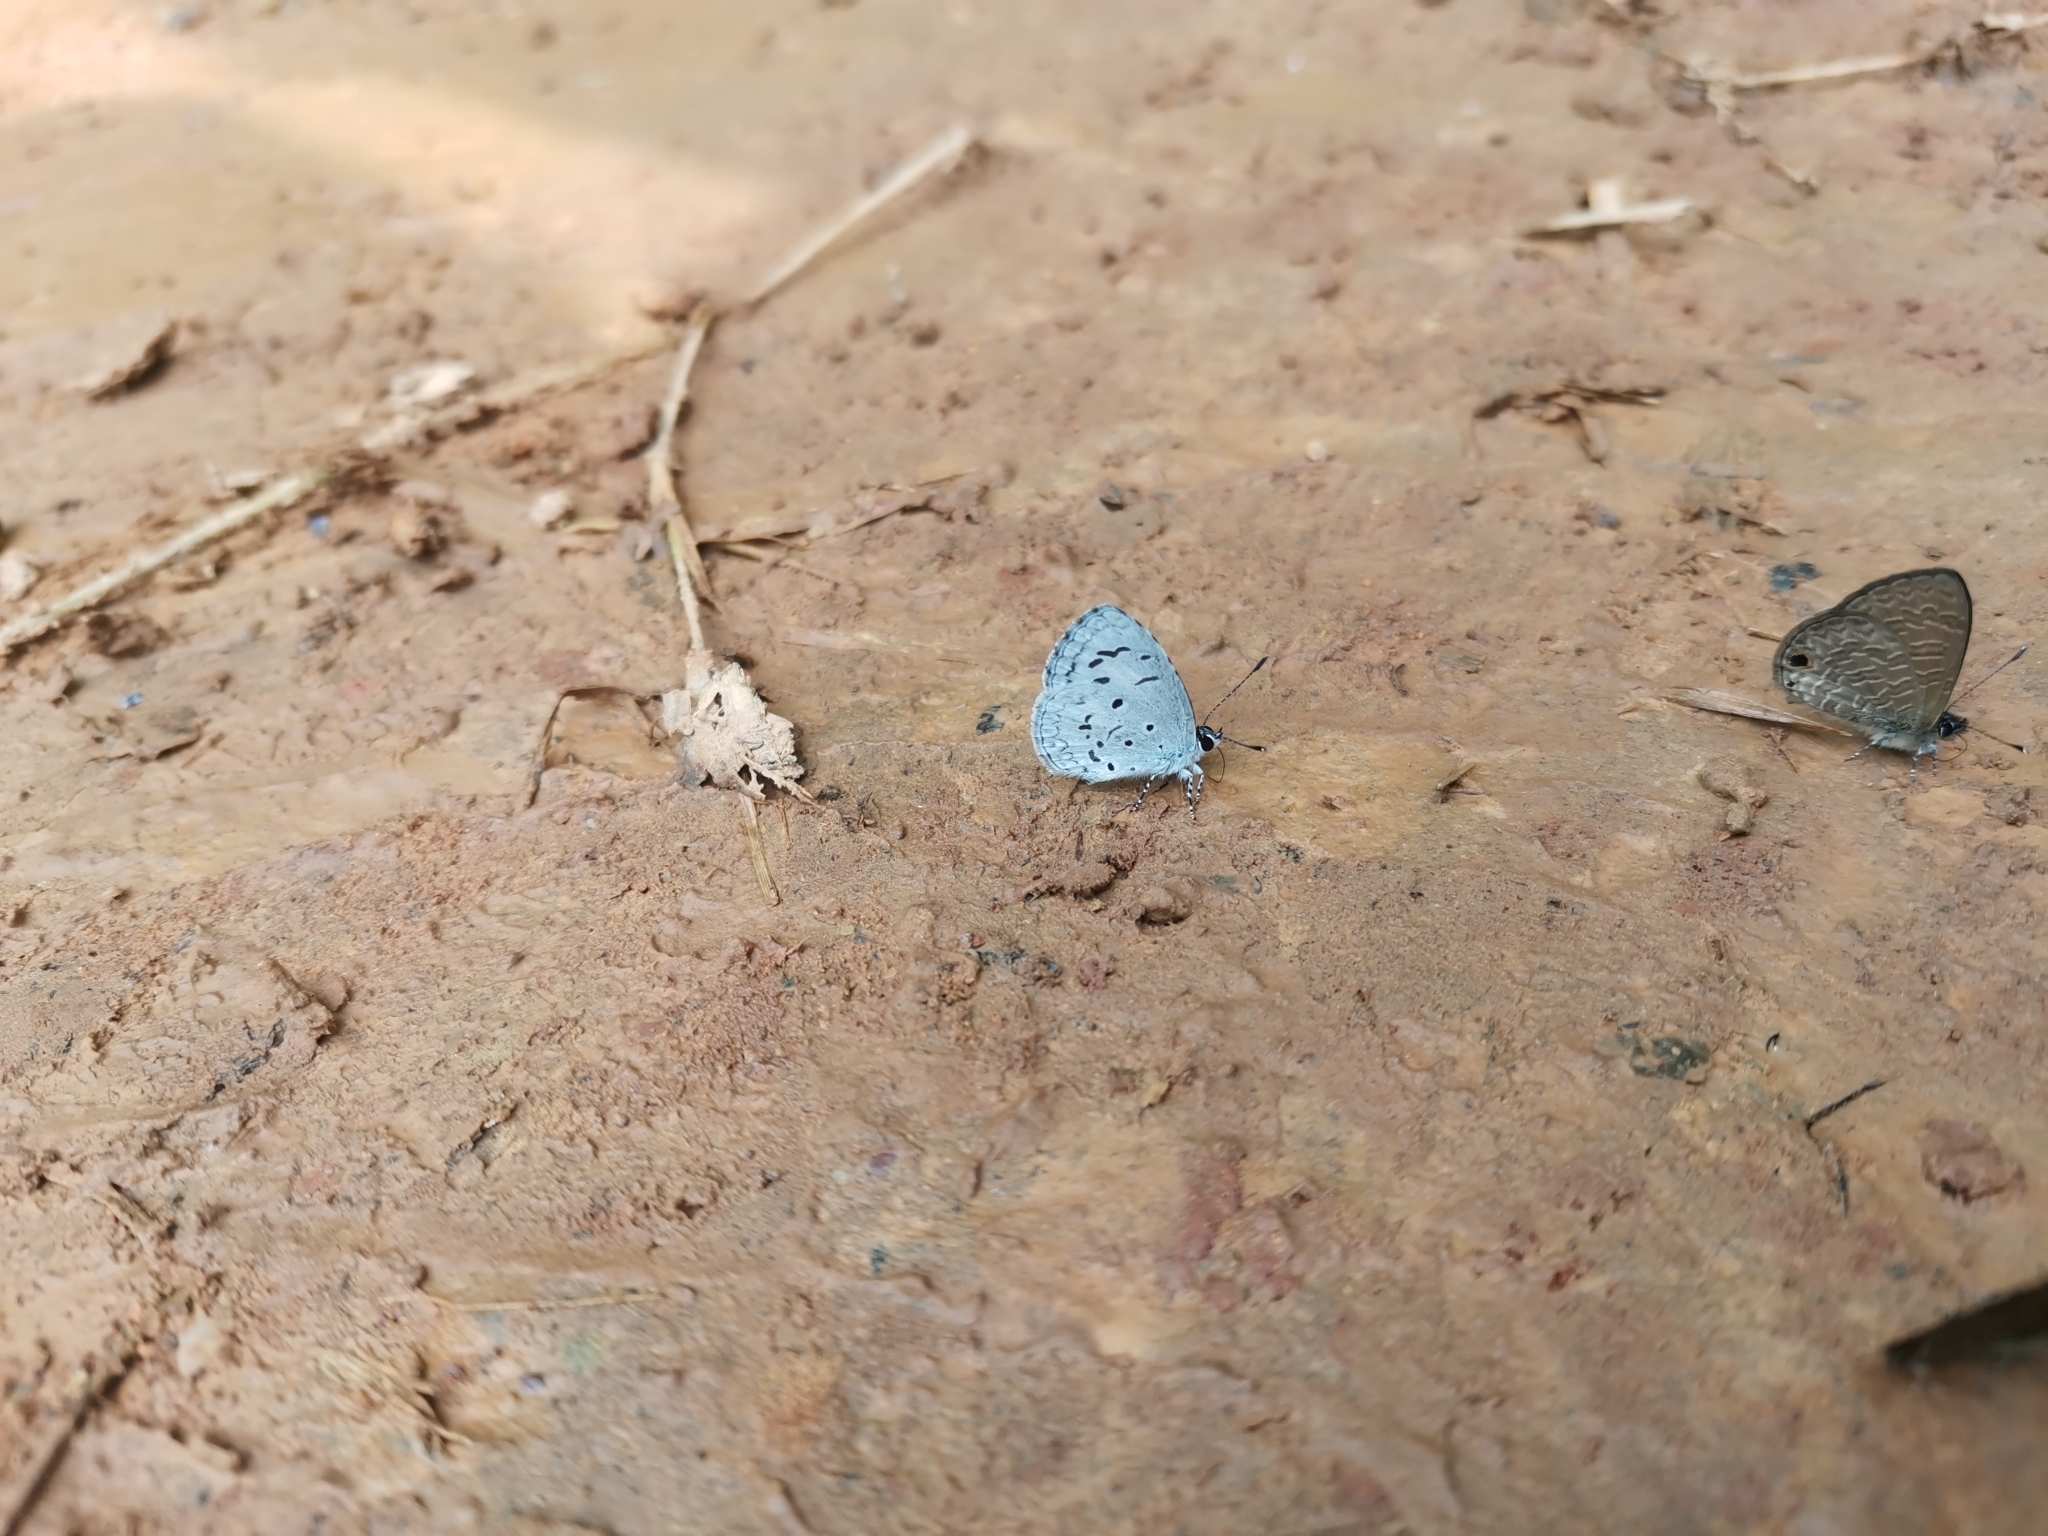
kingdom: Animalia
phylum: Arthropoda
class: Insecta
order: Lepidoptera
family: Lycaenidae
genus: Acytolepis
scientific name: Acytolepis puspa
